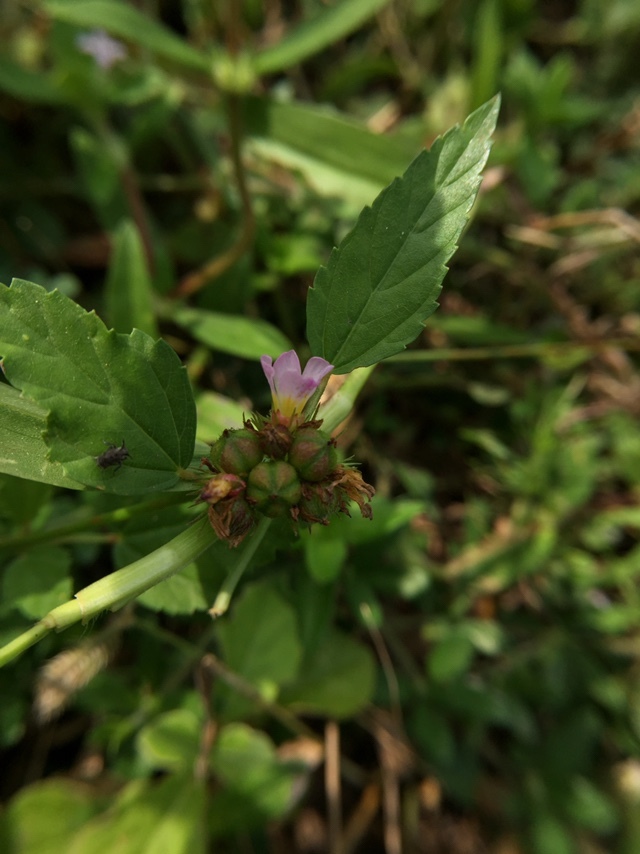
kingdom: Plantae
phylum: Tracheophyta
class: Magnoliopsida
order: Malvales
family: Malvaceae
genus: Melochia
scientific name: Melochia corchorifolia
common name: Chocolateweed
